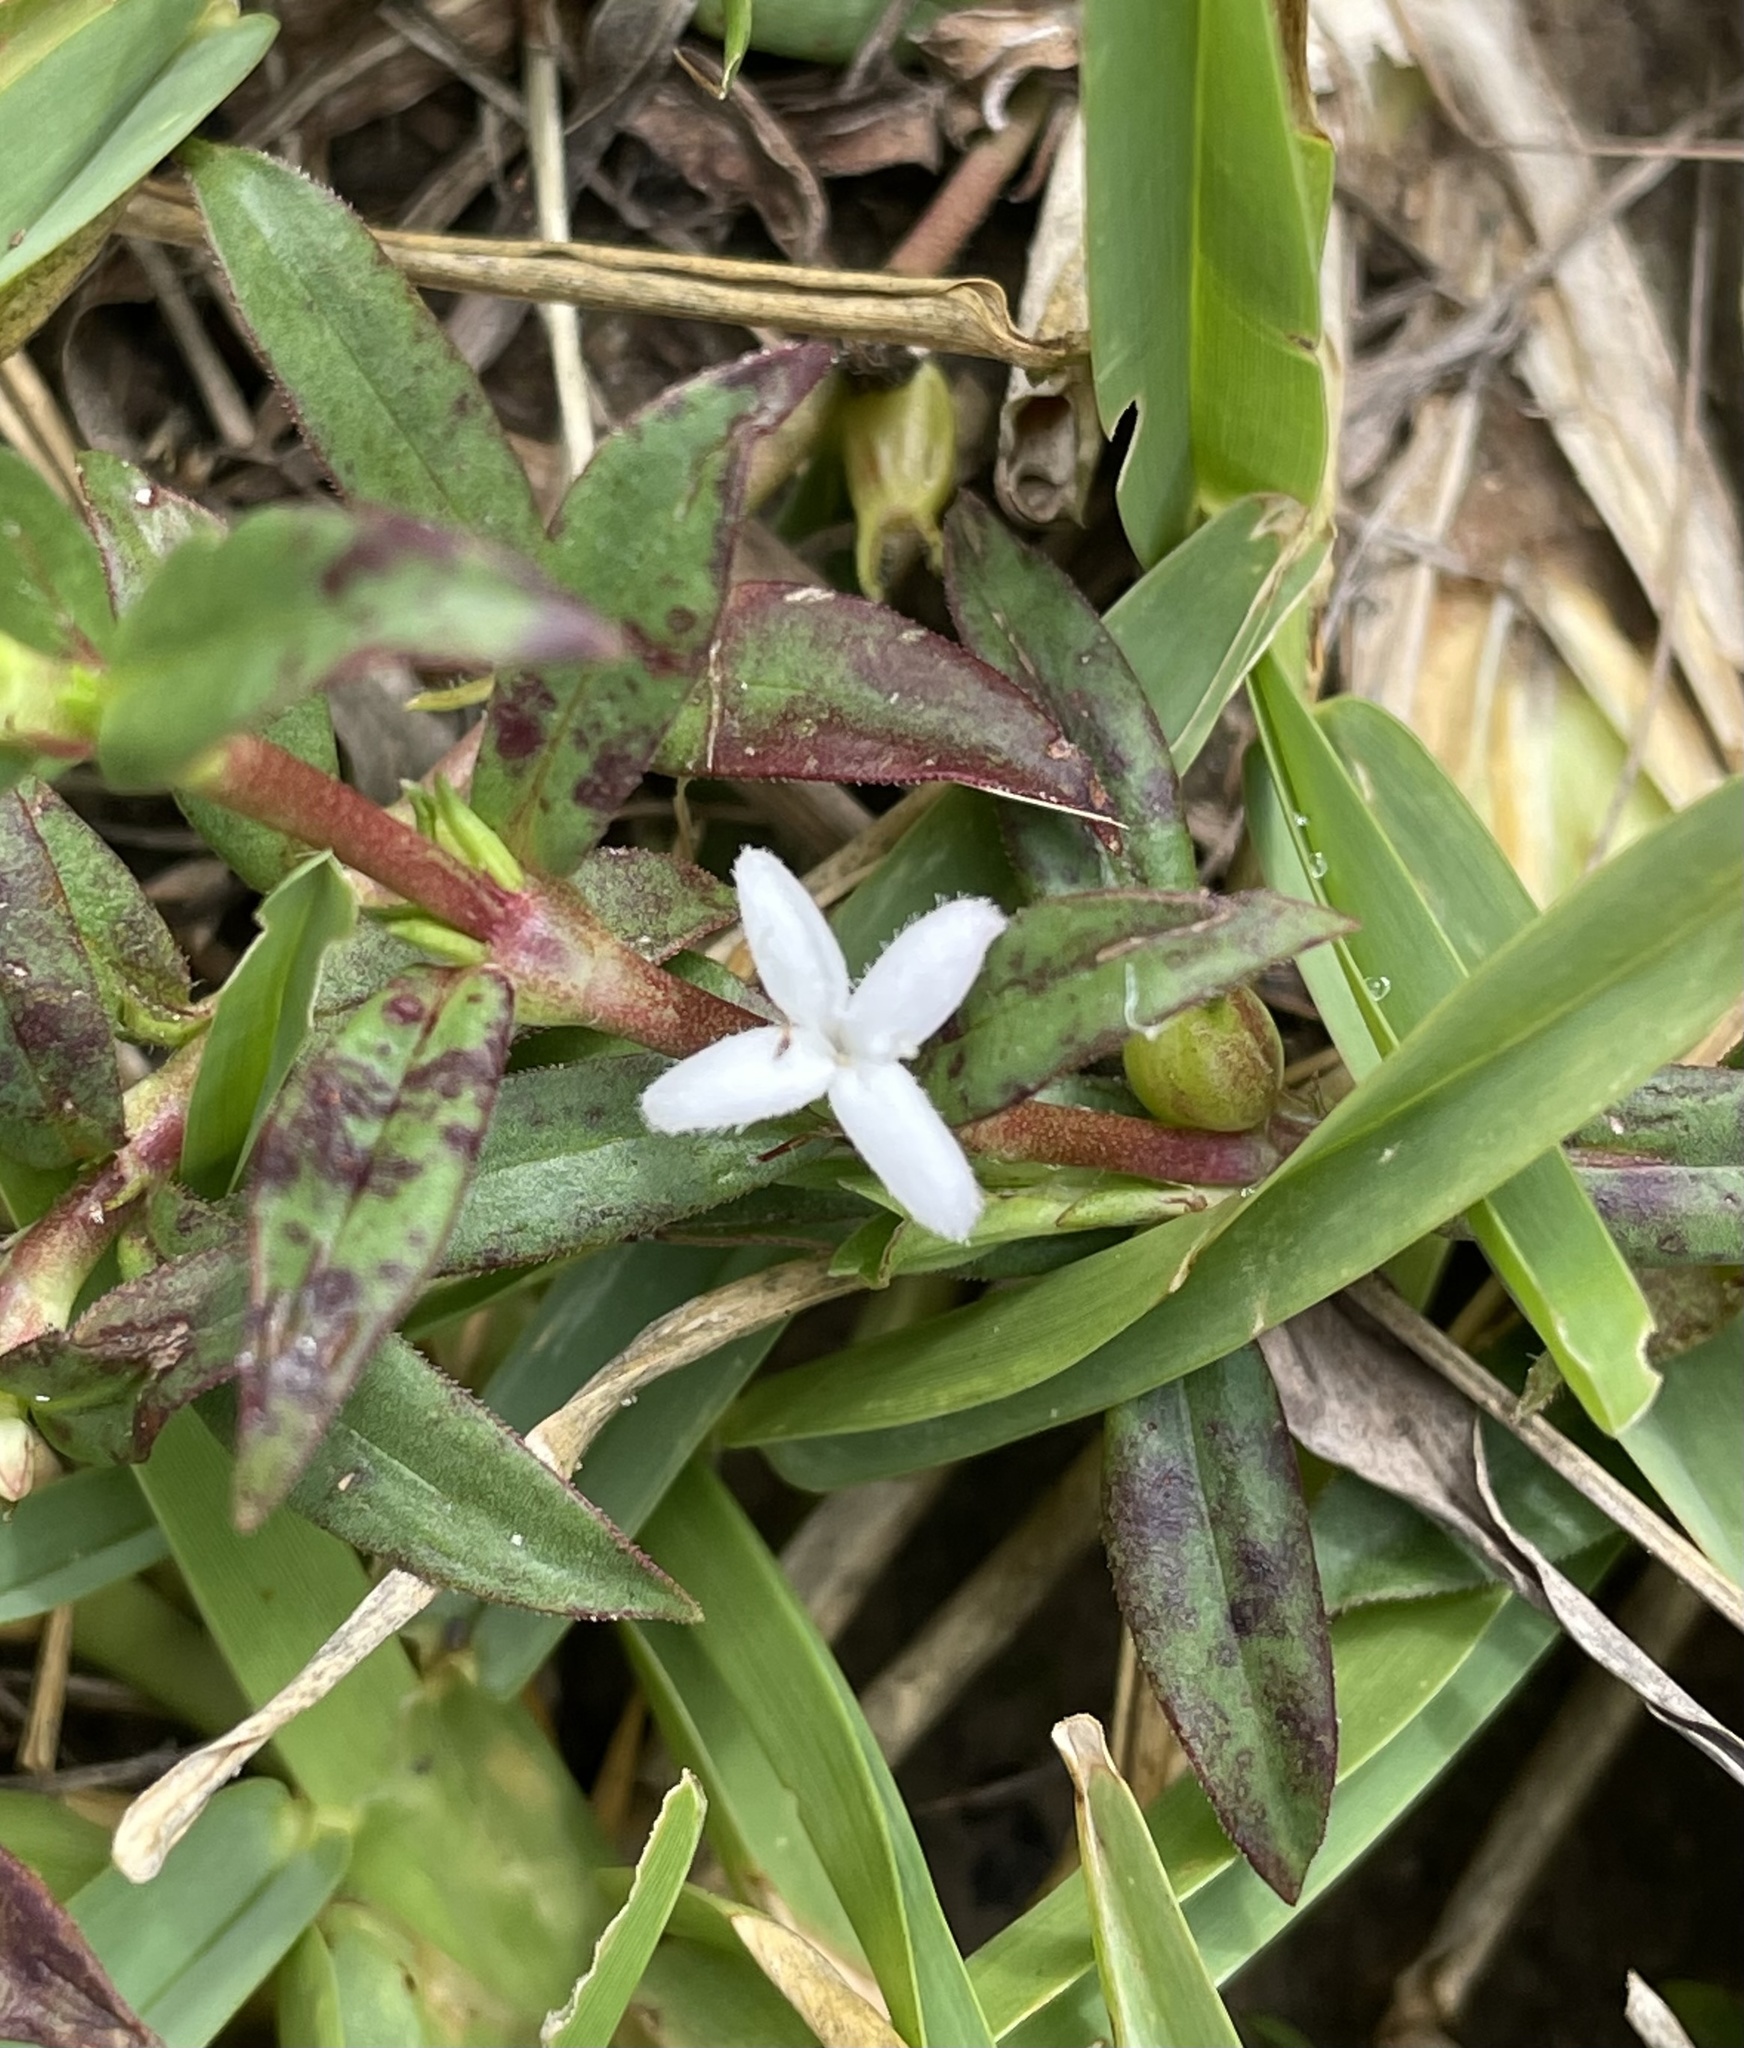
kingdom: Plantae
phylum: Tracheophyta
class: Magnoliopsida
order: Gentianales
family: Rubiaceae
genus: Diodia
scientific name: Diodia virginiana
